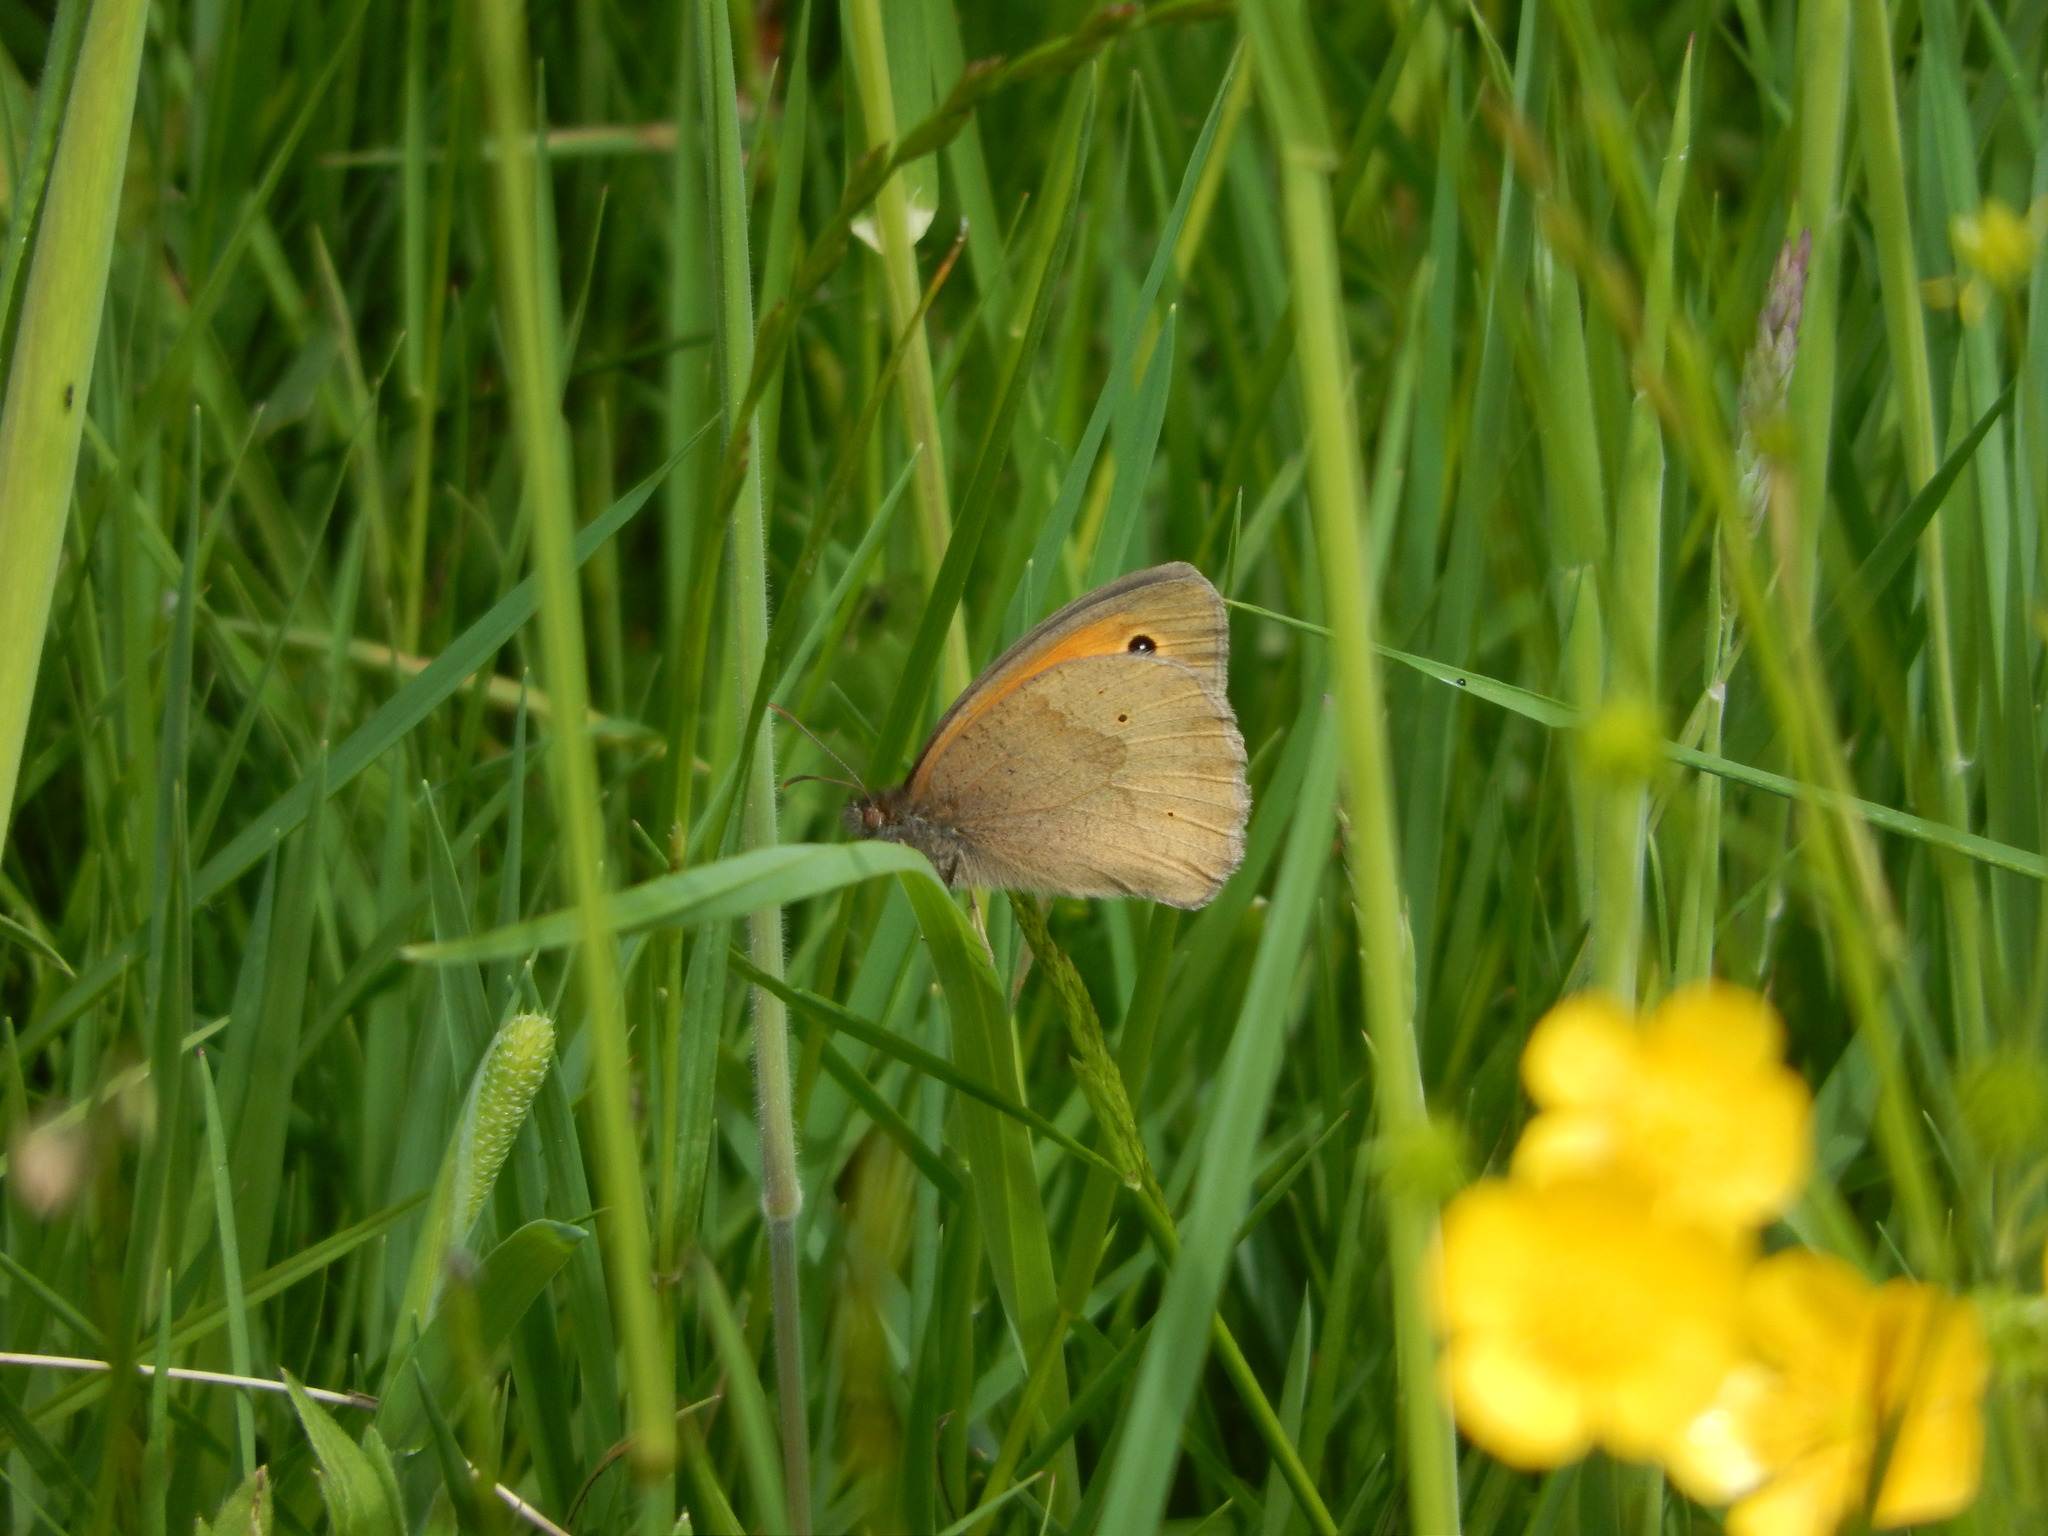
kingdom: Animalia
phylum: Arthropoda
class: Insecta
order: Lepidoptera
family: Nymphalidae
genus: Maniola
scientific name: Maniola jurtina
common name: Meadow brown
